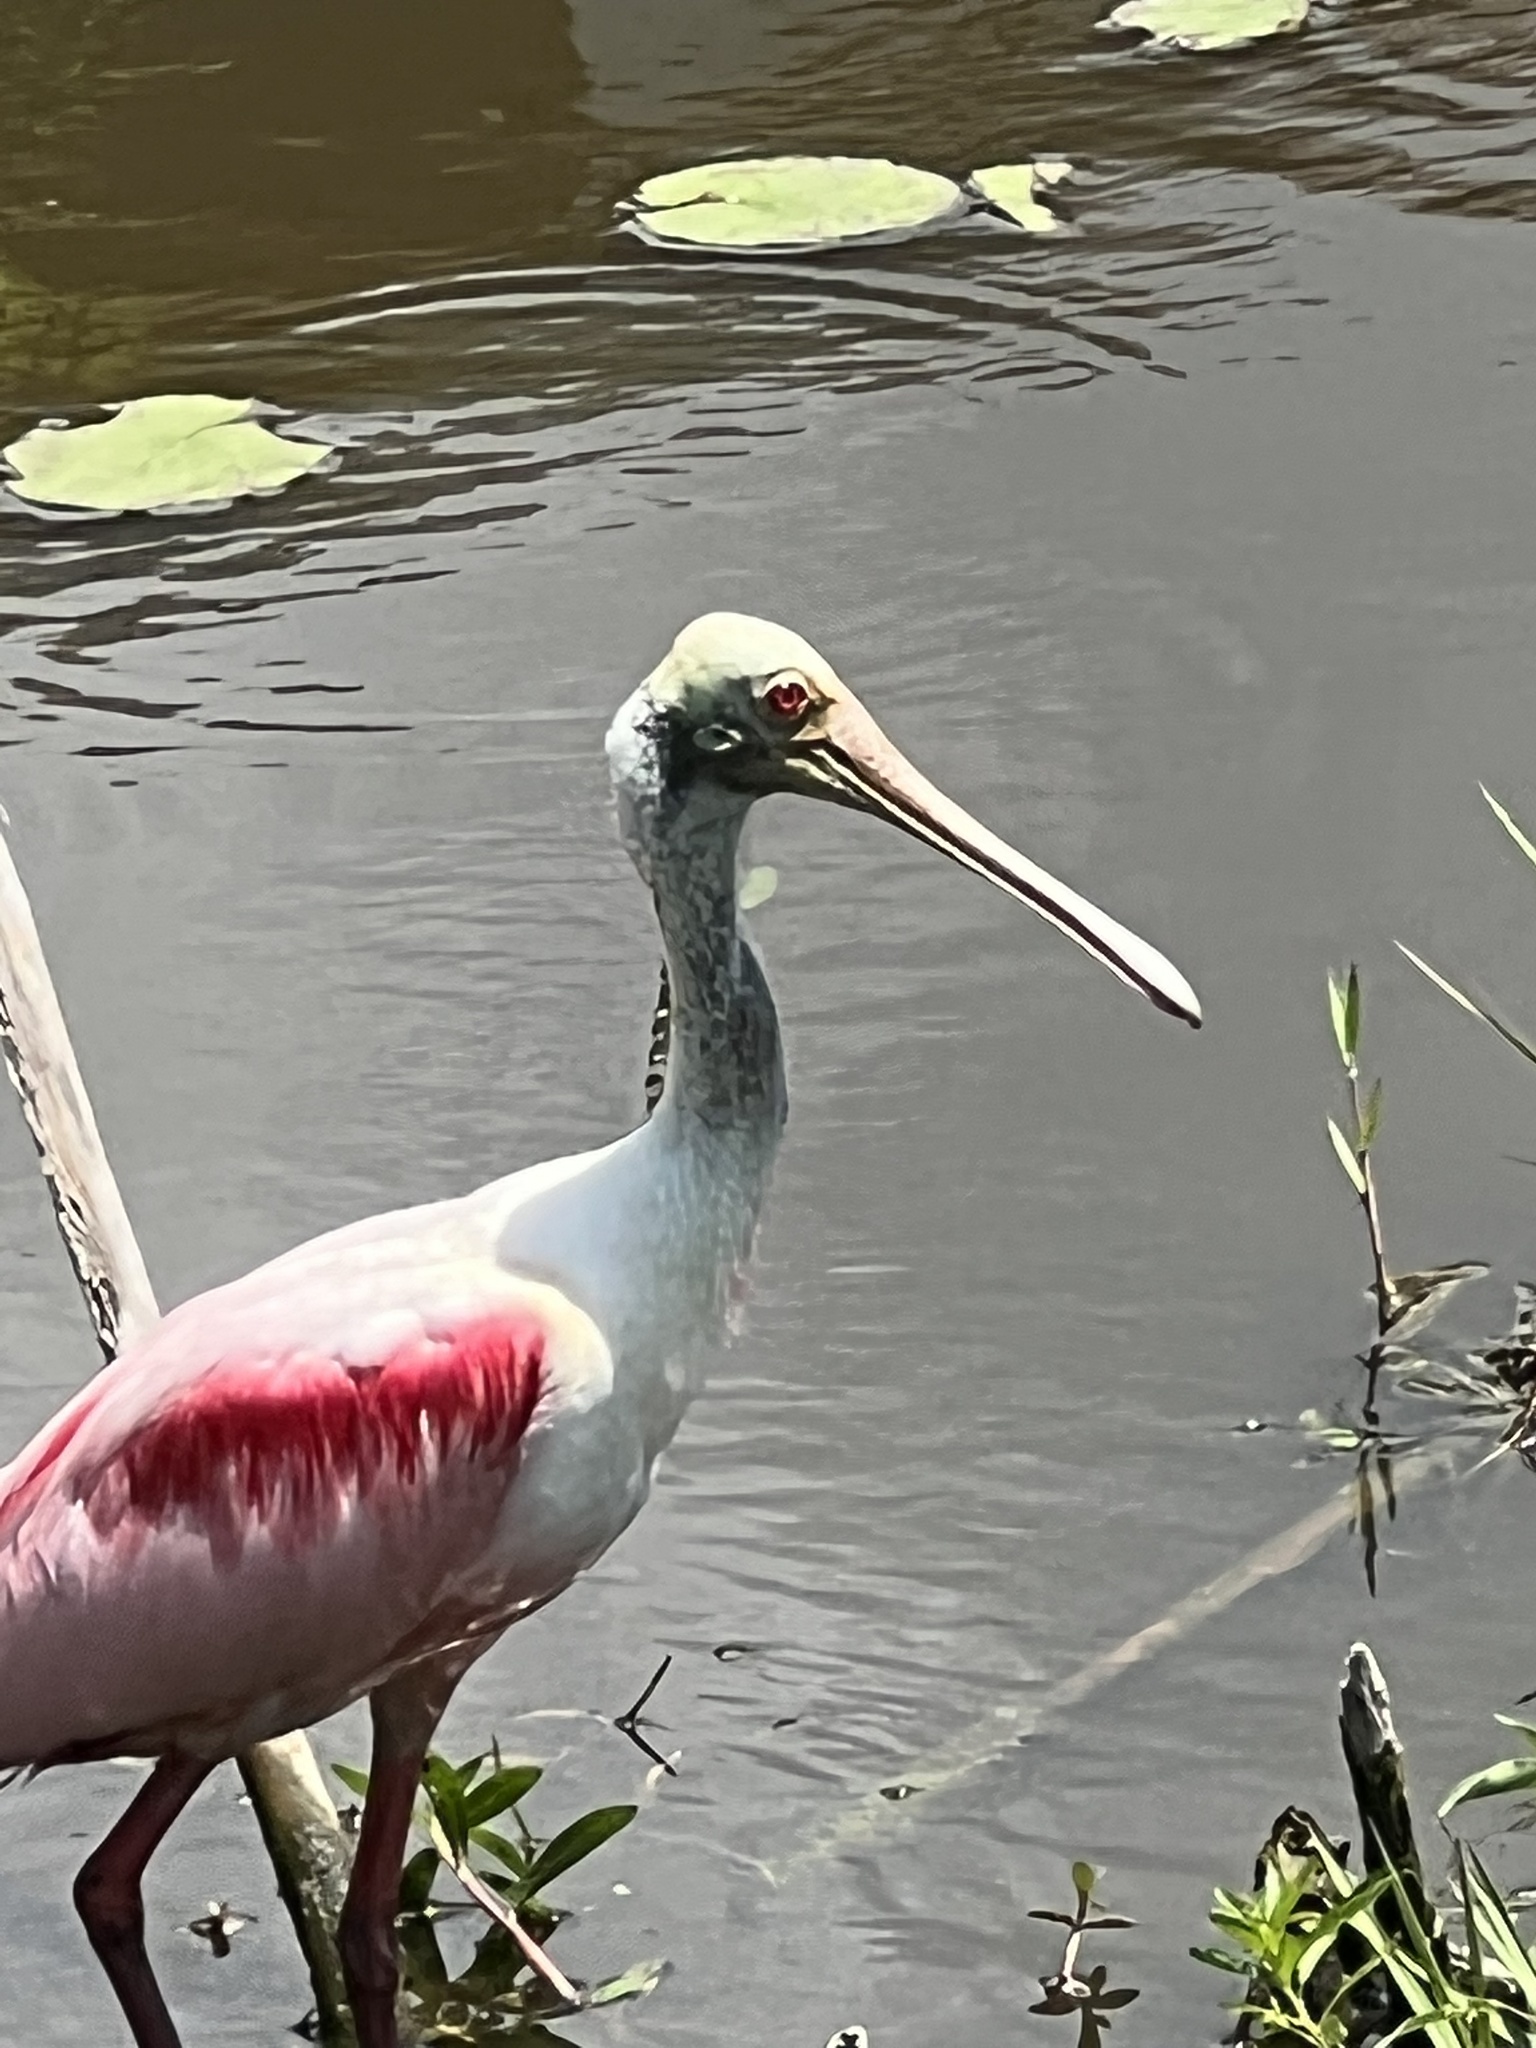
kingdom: Animalia
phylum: Chordata
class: Aves
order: Pelecaniformes
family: Threskiornithidae
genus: Platalea
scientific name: Platalea ajaja
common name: Roseate spoonbill
